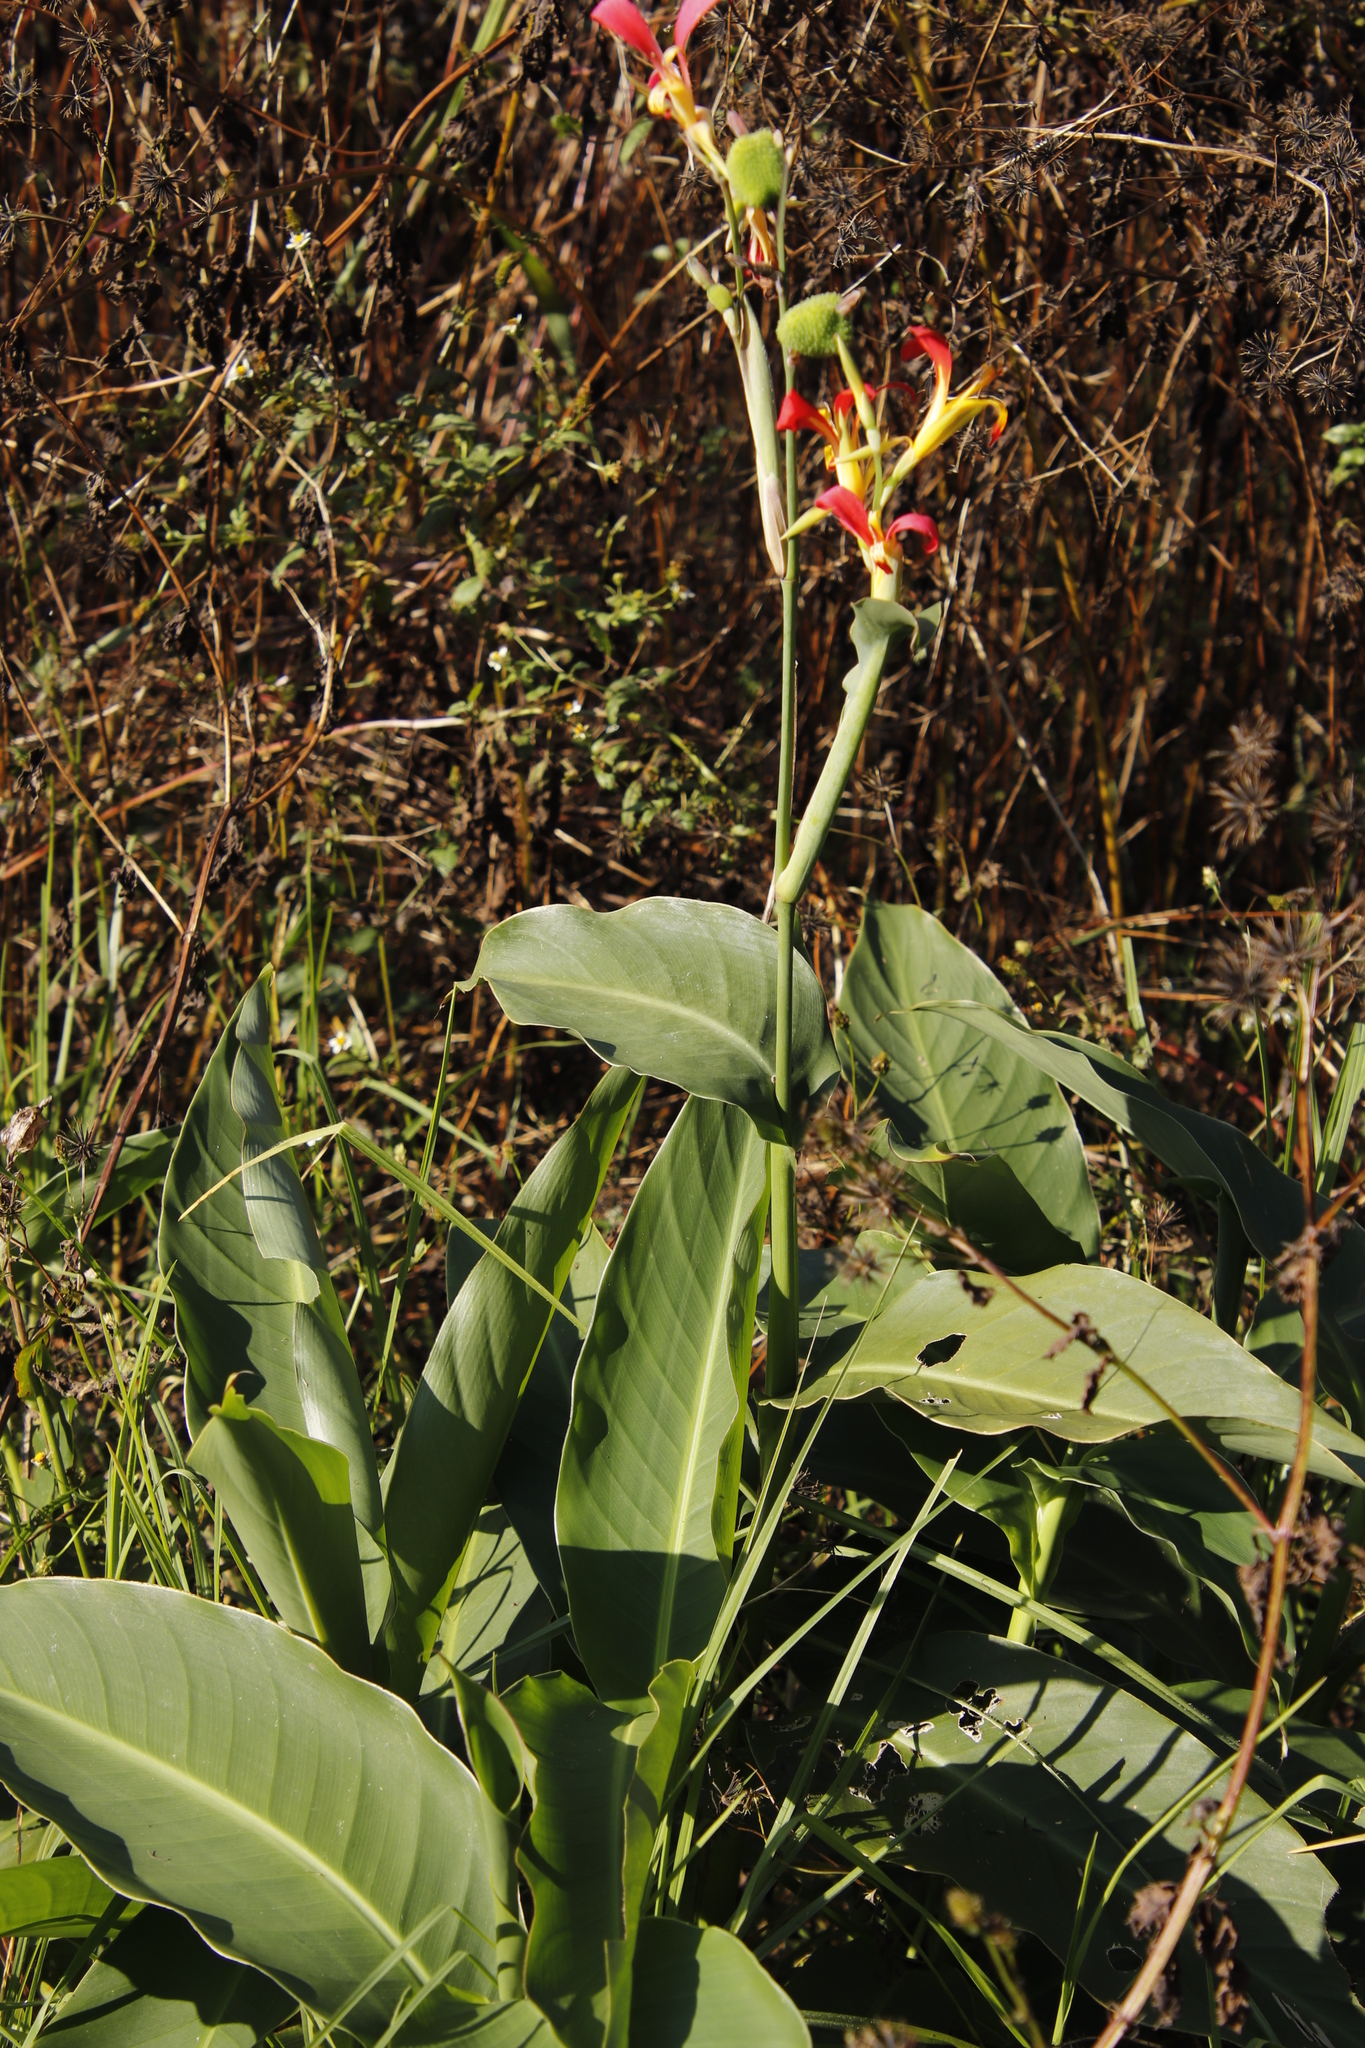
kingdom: Plantae
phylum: Tracheophyta
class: Liliopsida
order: Zingiberales
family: Cannaceae
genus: Canna
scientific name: Canna indica
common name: Indian shot
